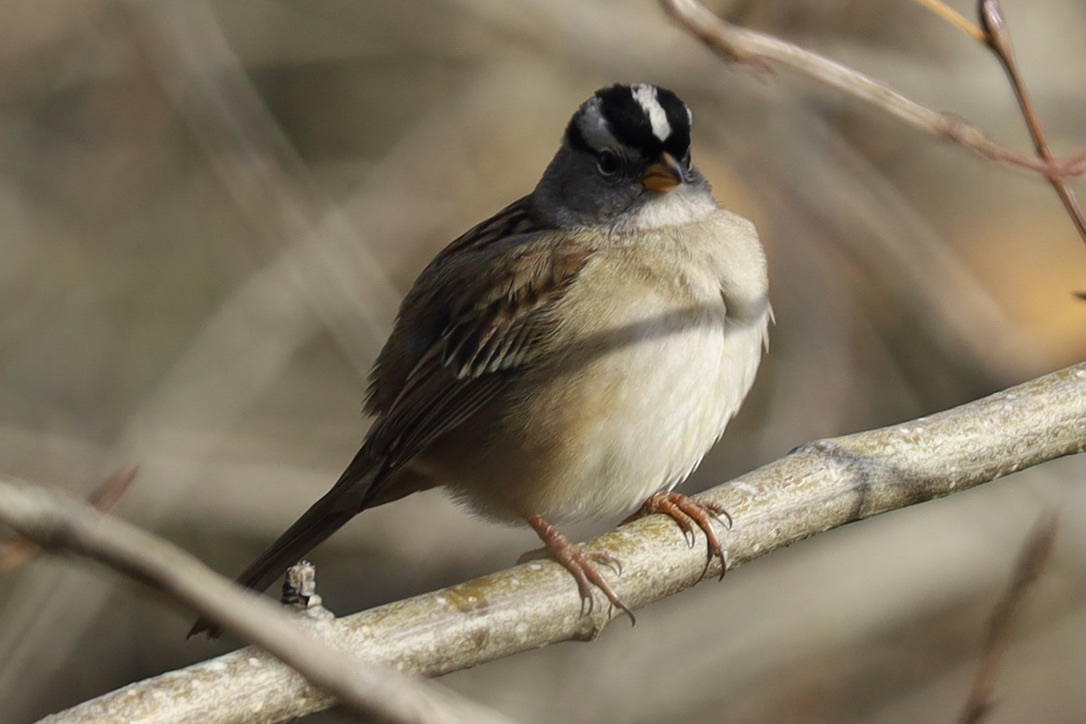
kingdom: Animalia
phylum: Chordata
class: Aves
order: Passeriformes
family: Passerellidae
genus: Zonotrichia
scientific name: Zonotrichia leucophrys
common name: White-crowned sparrow
